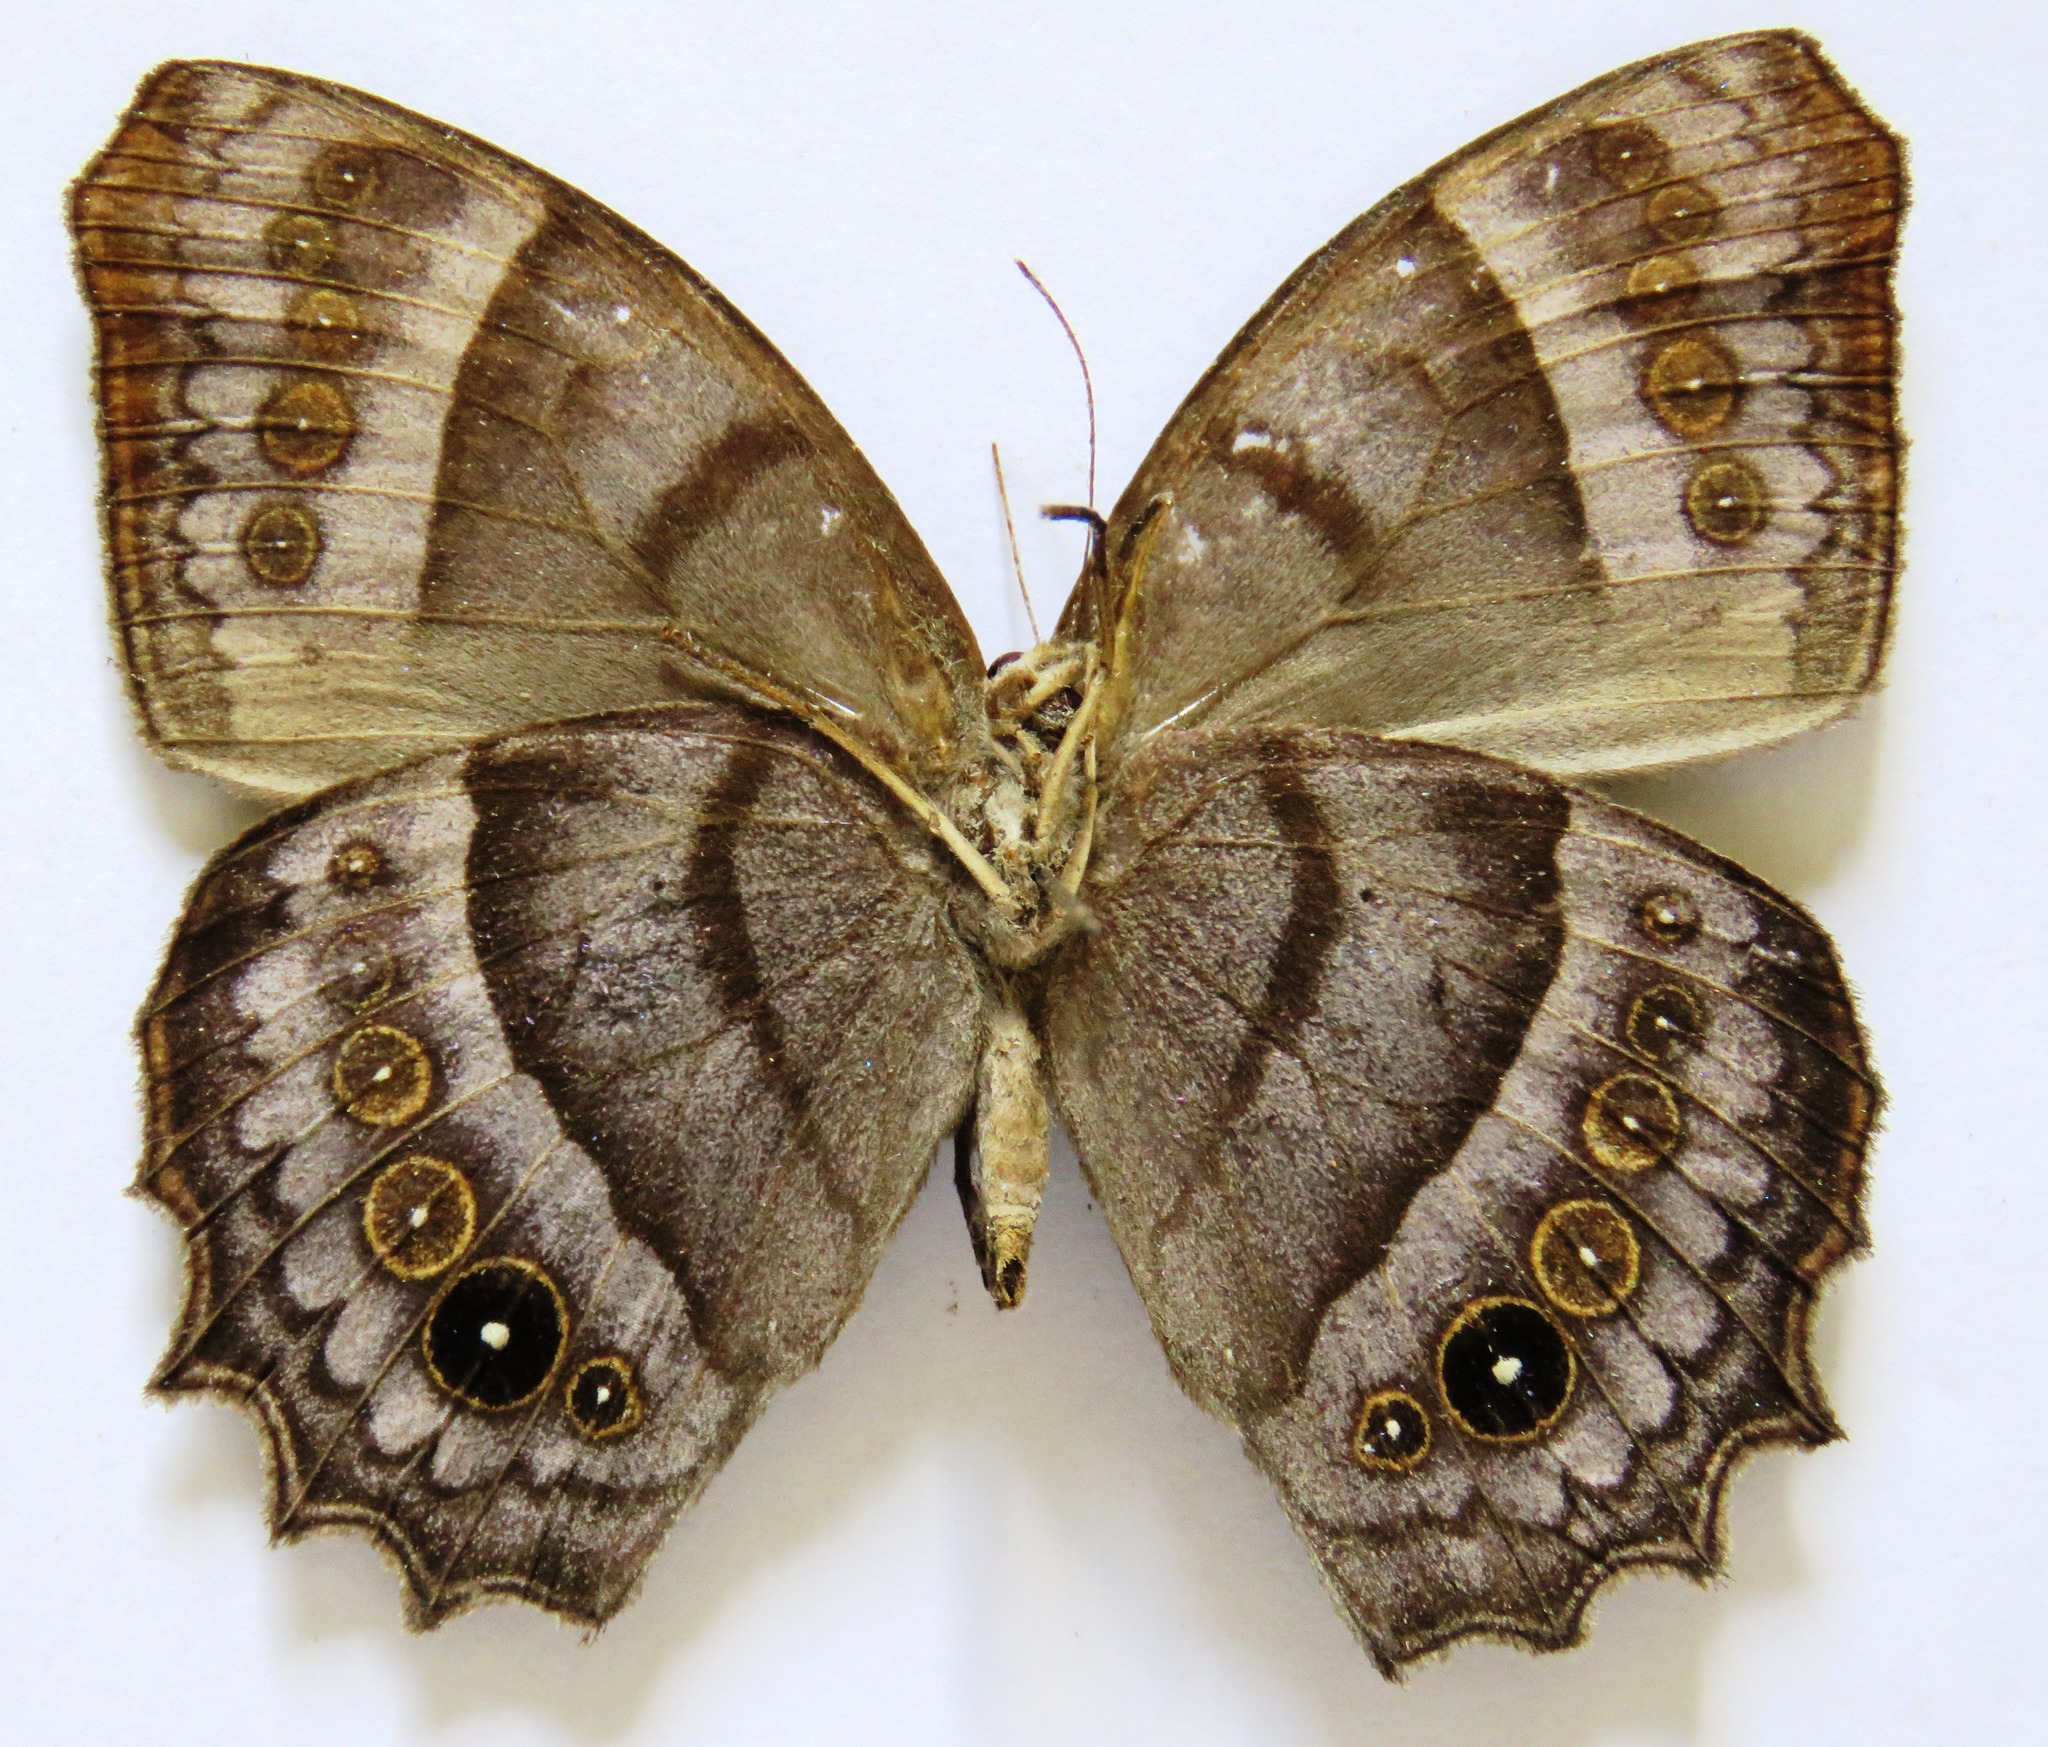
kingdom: Animalia
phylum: Arthropoda
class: Insecta
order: Lepidoptera
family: Nymphalidae
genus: Taygetis
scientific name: Taygetis inconspicua
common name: Inconspicuous satyr
